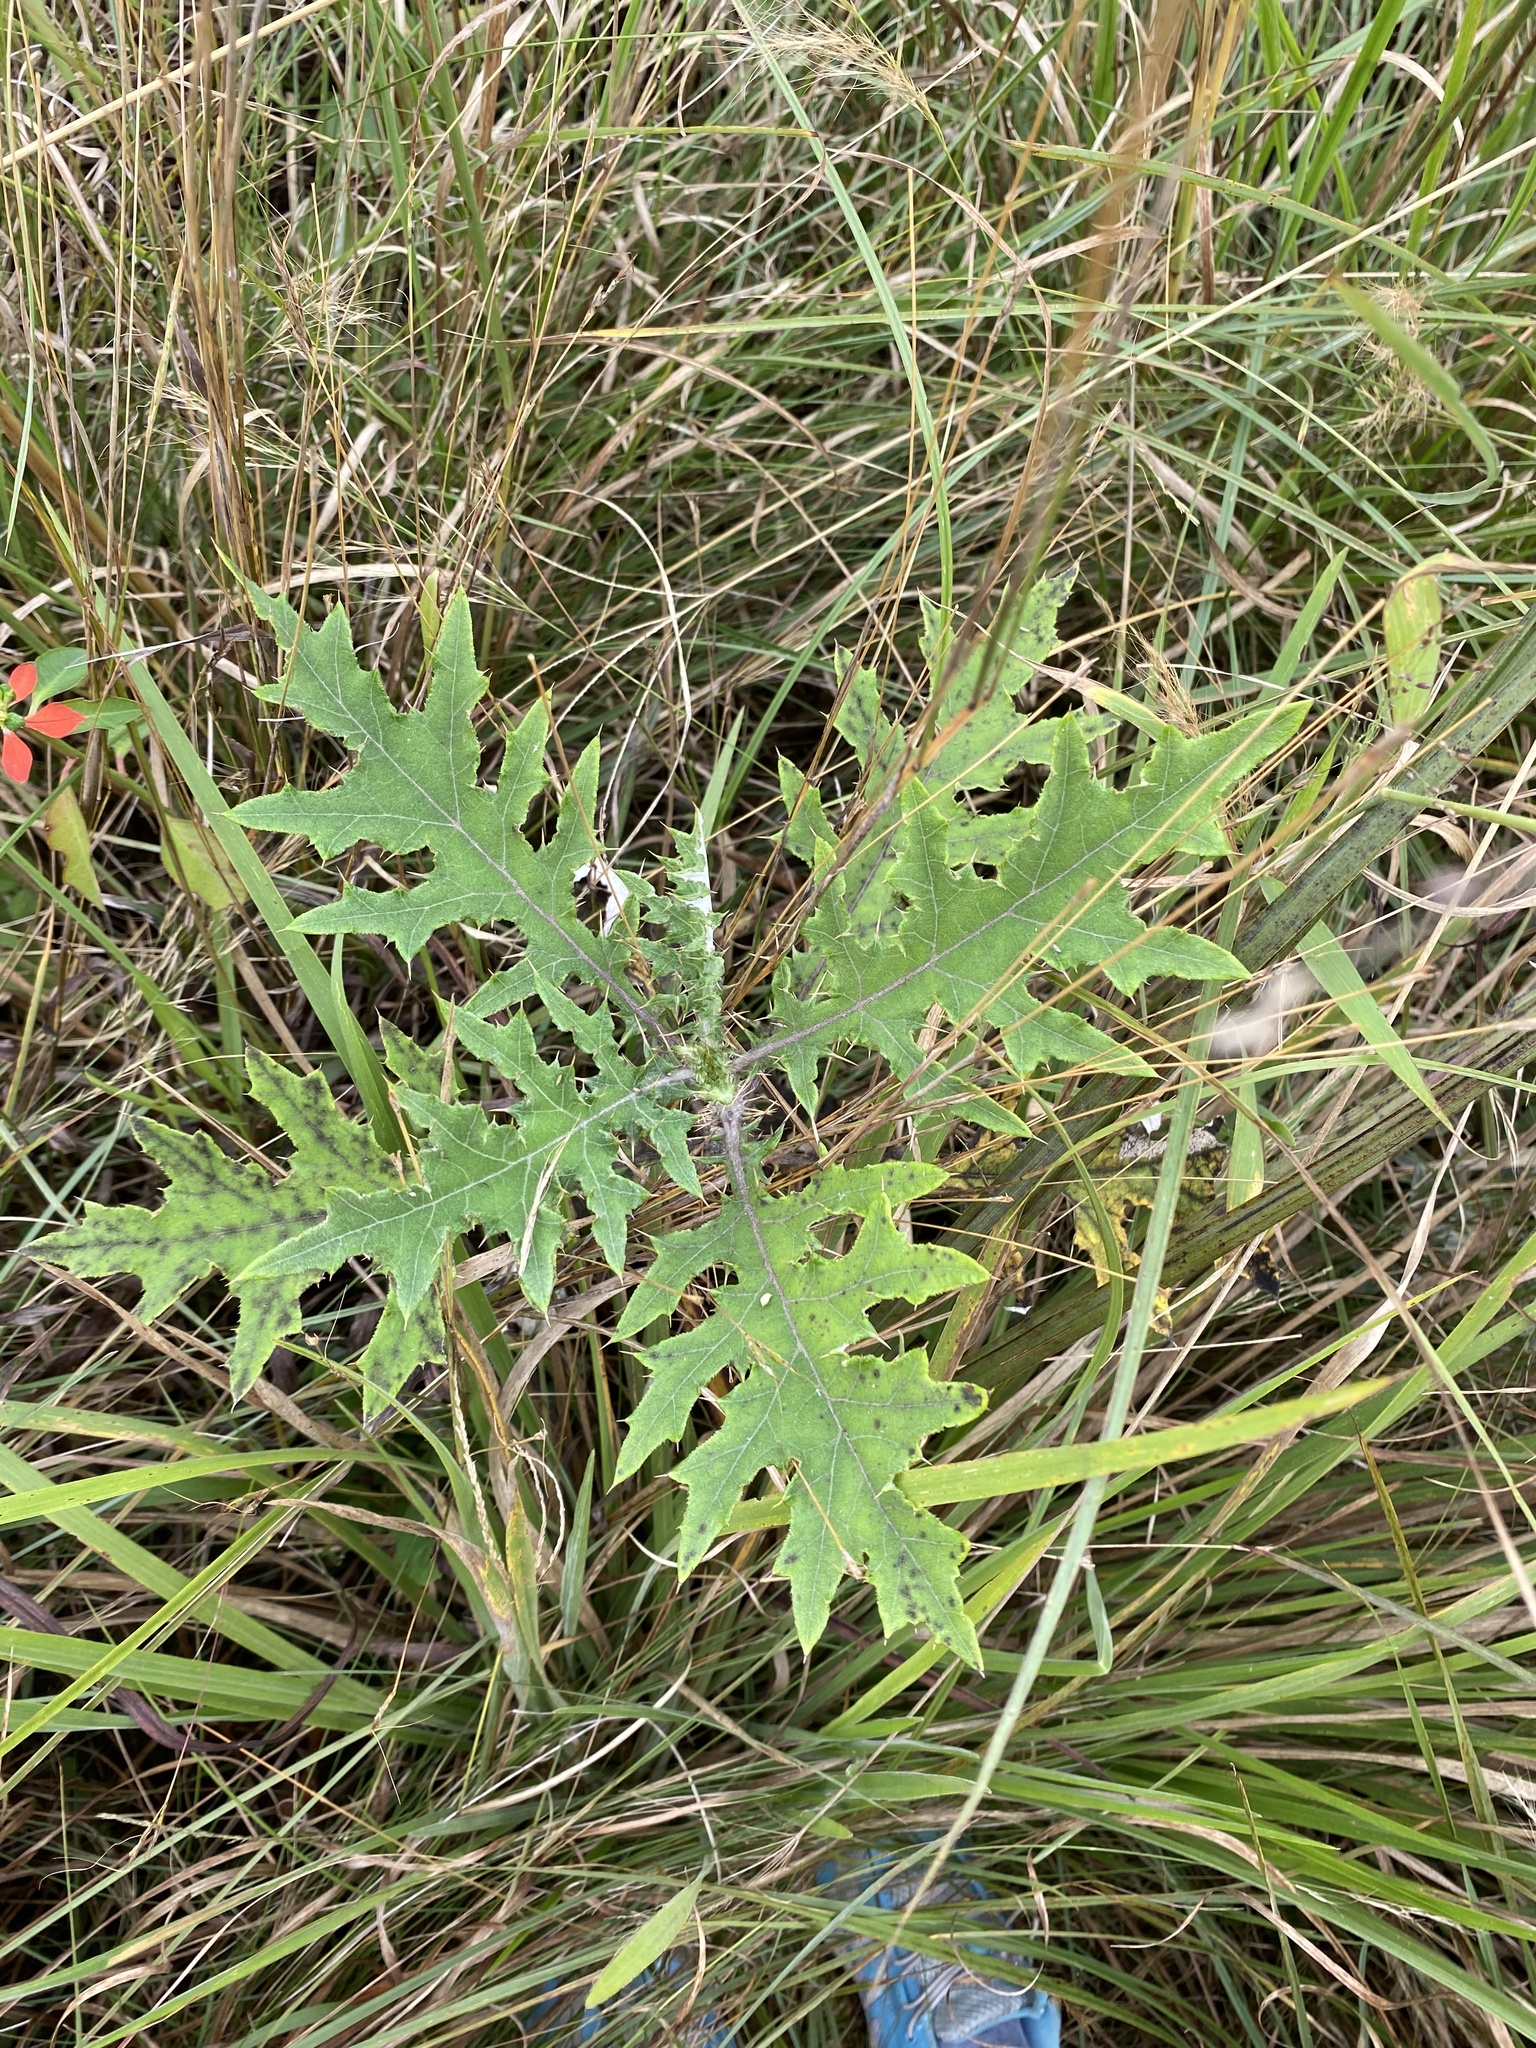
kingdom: Plantae
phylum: Tracheophyta
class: Magnoliopsida
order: Asterales
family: Asteraceae
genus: Berkheya
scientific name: Berkheya bipinnatifida
